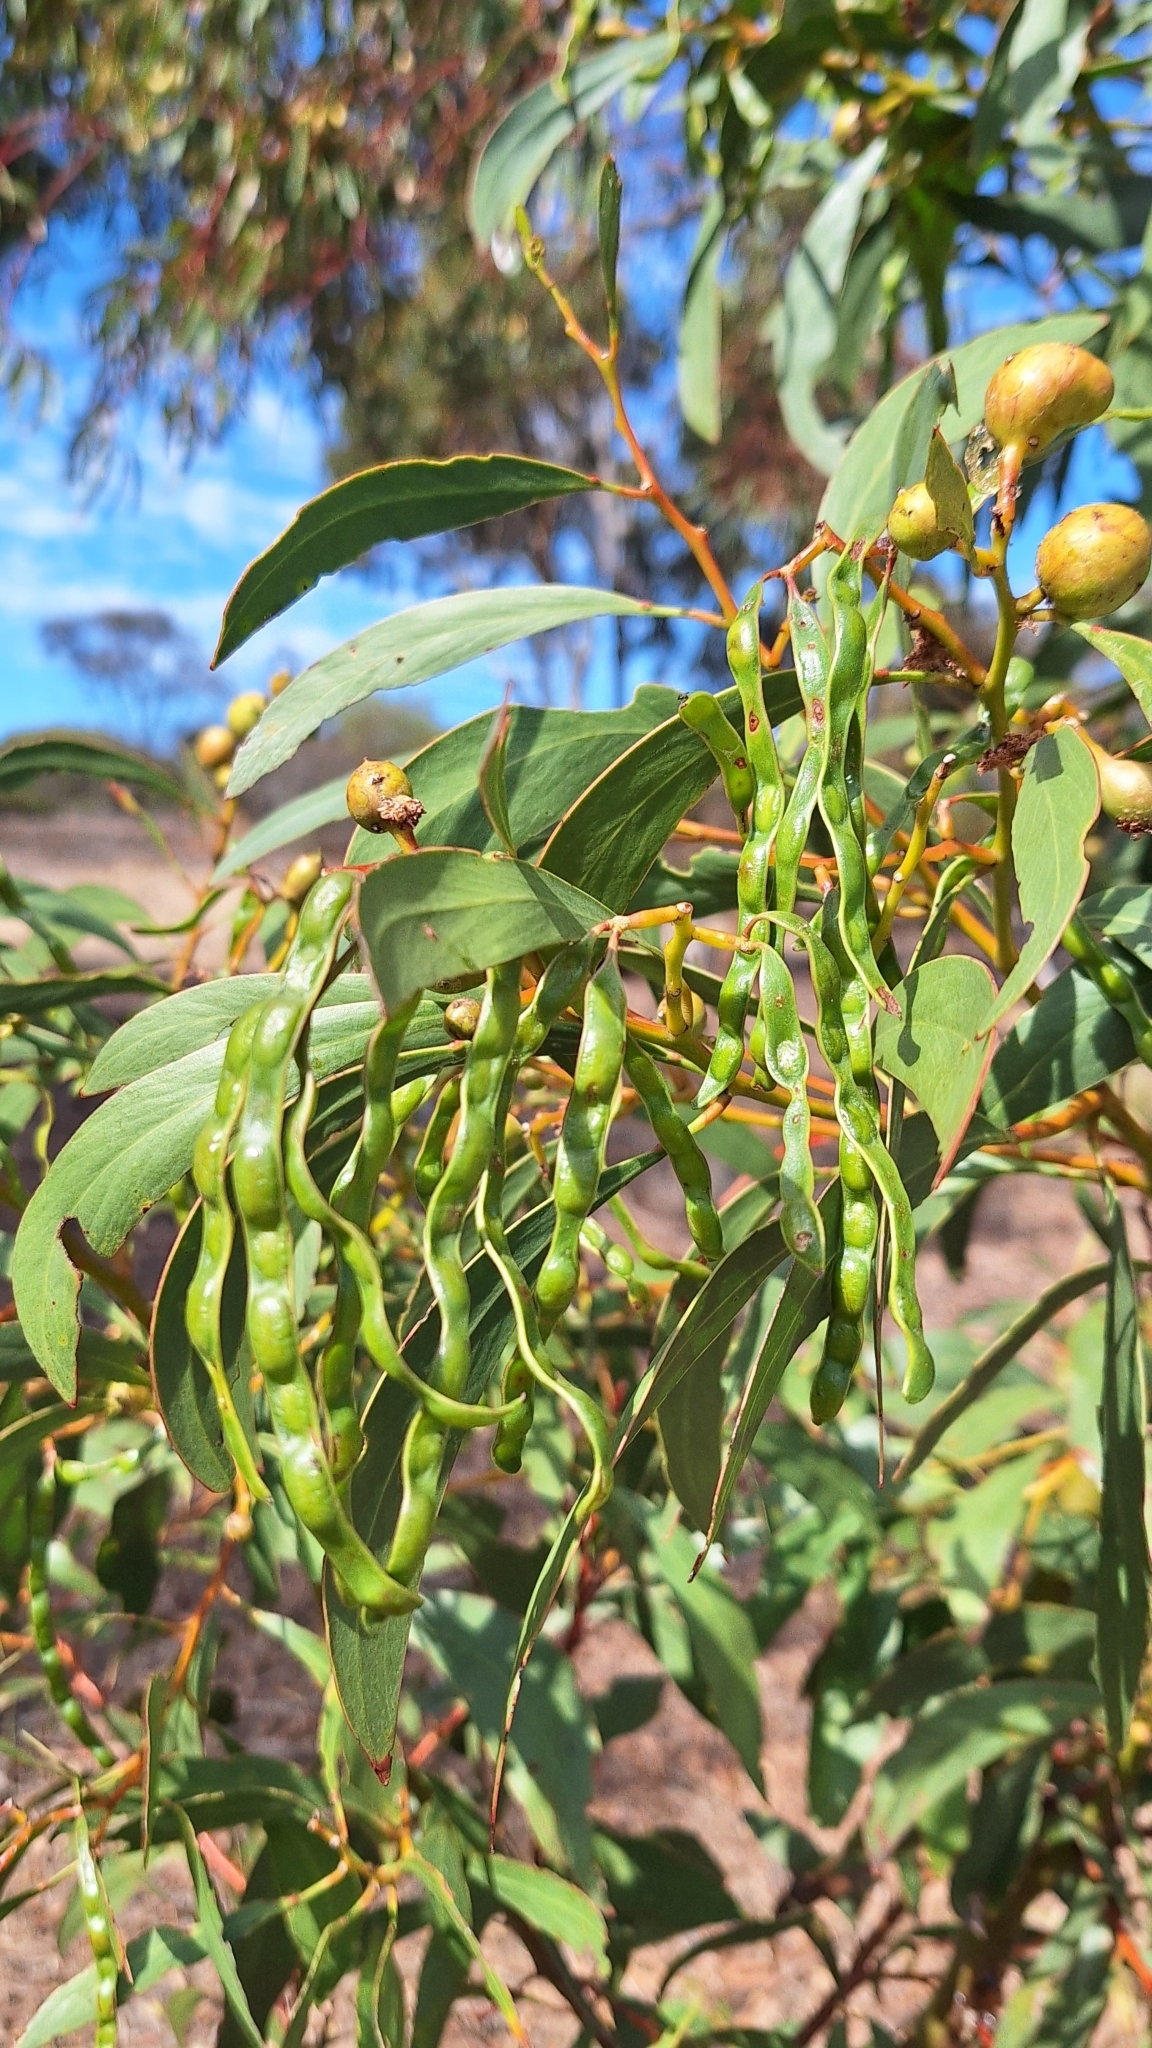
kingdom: Plantae
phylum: Tracheophyta
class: Magnoliopsida
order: Fabales
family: Fabaceae
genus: Acacia
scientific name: Acacia pycnantha
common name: Golden wattle
